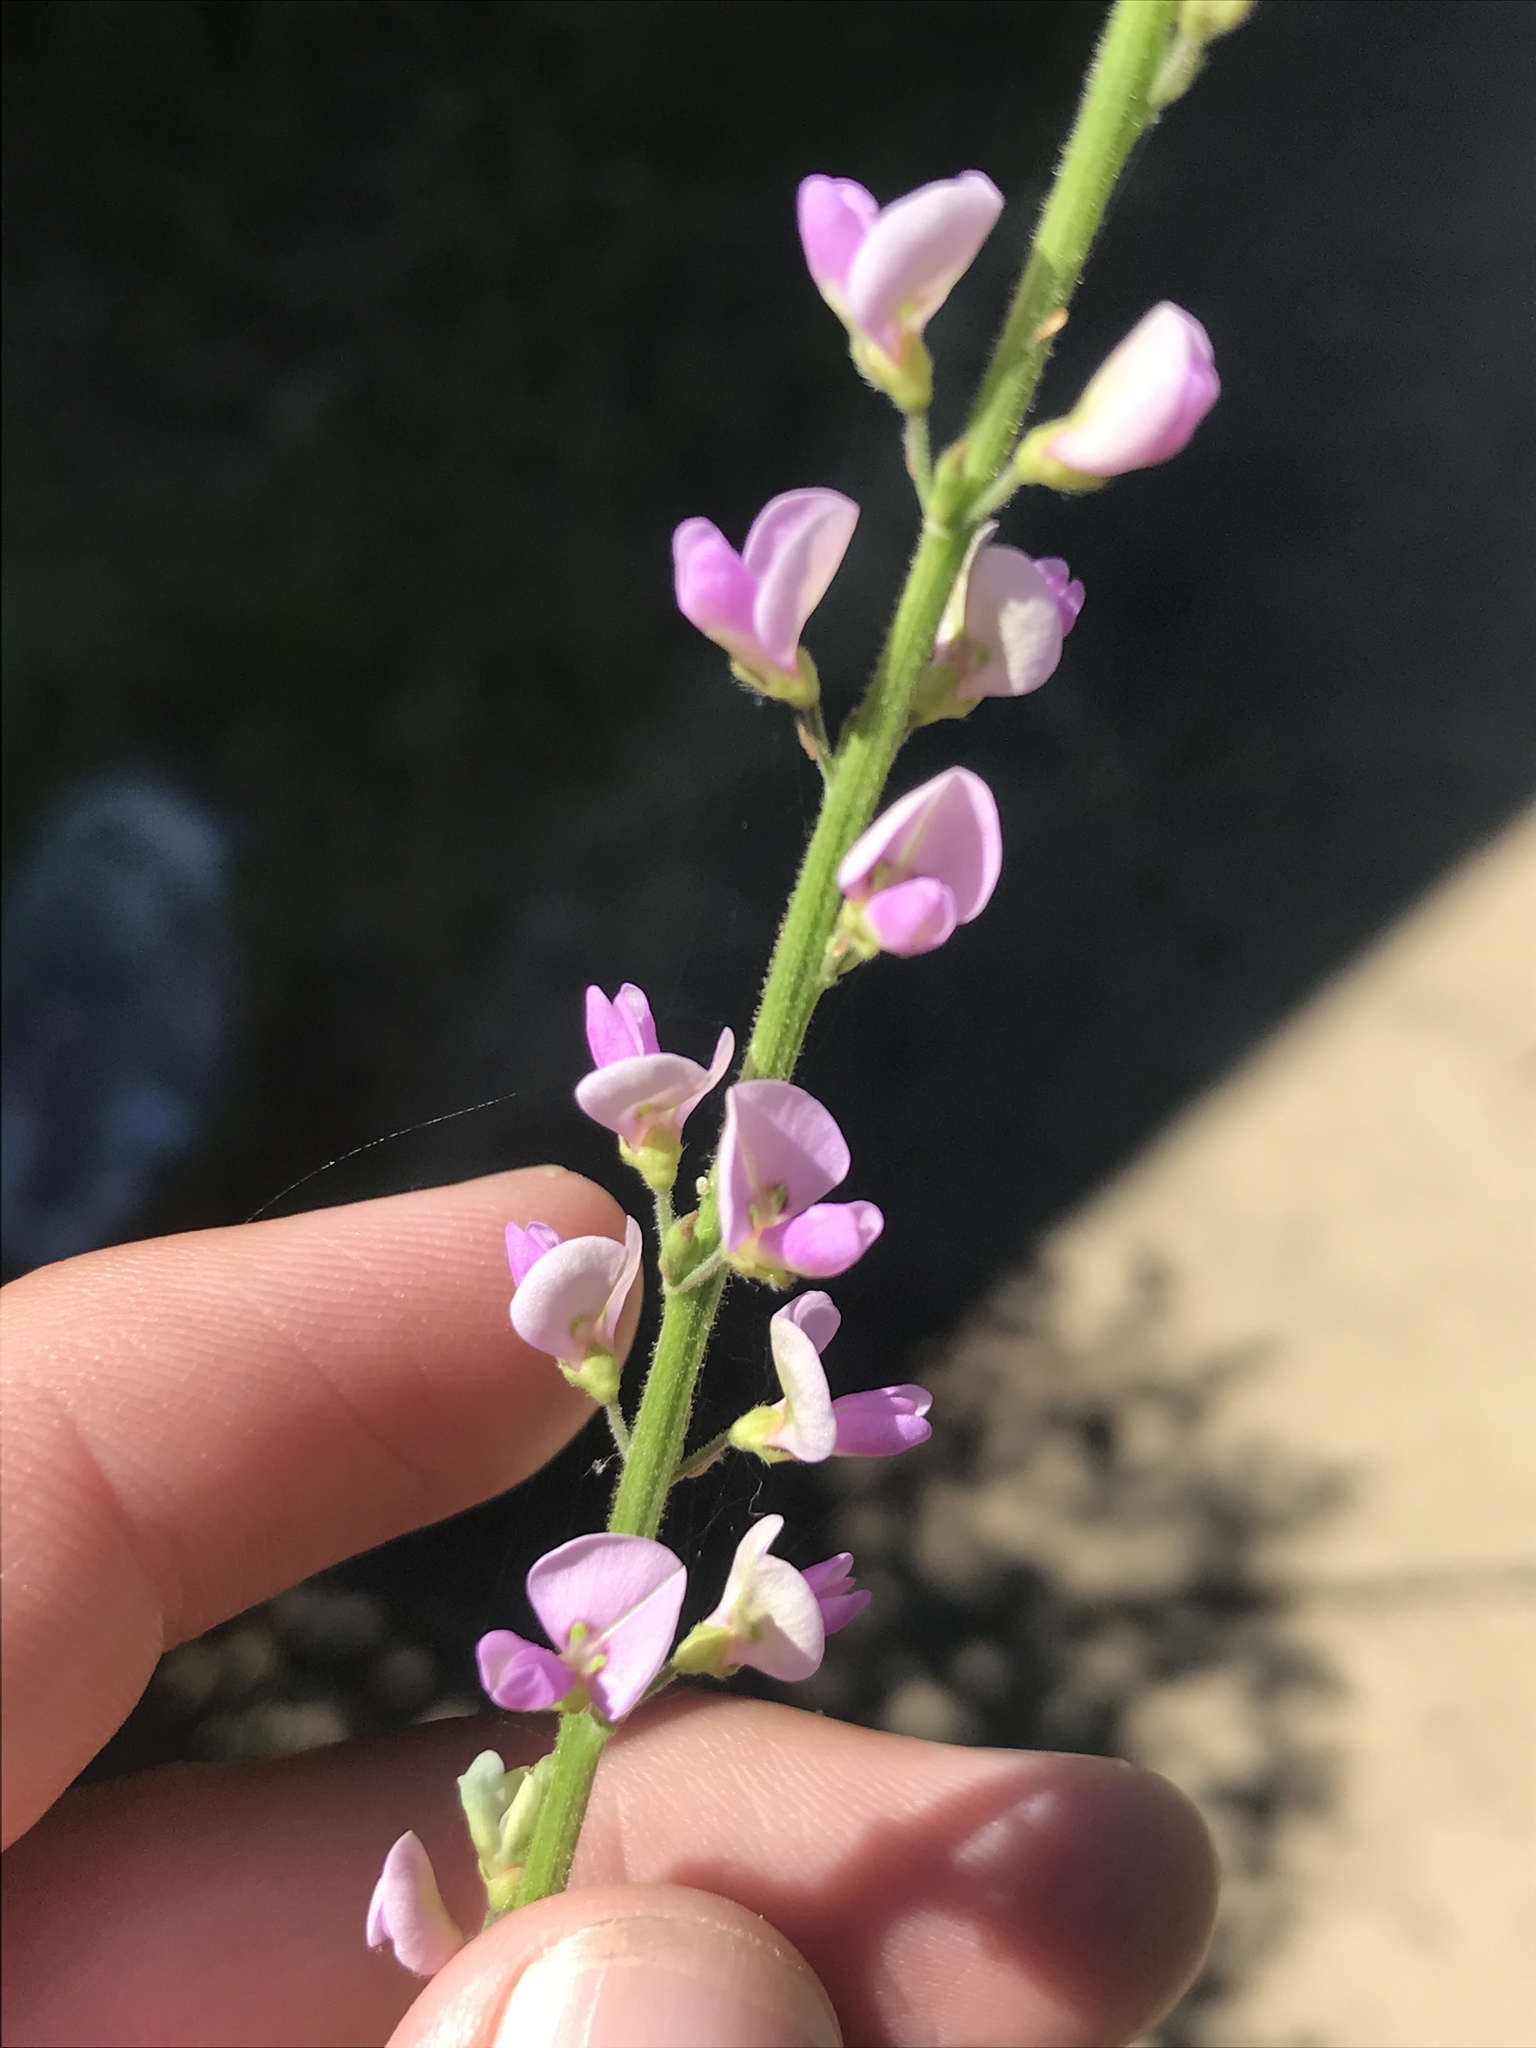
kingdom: Plantae
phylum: Tracheophyta
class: Magnoliopsida
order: Fabales
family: Fabaceae
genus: Desmodium
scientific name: Desmodium sessilifolium
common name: Sessile tick-clover
